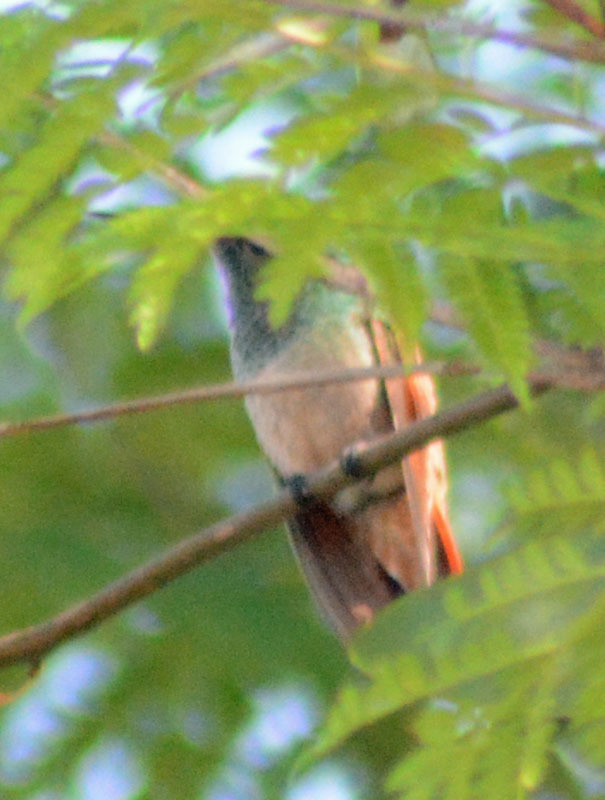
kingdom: Animalia
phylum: Chordata
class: Aves
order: Apodiformes
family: Trochilidae
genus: Saucerottia
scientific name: Saucerottia beryllina
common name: Berylline hummingbird
